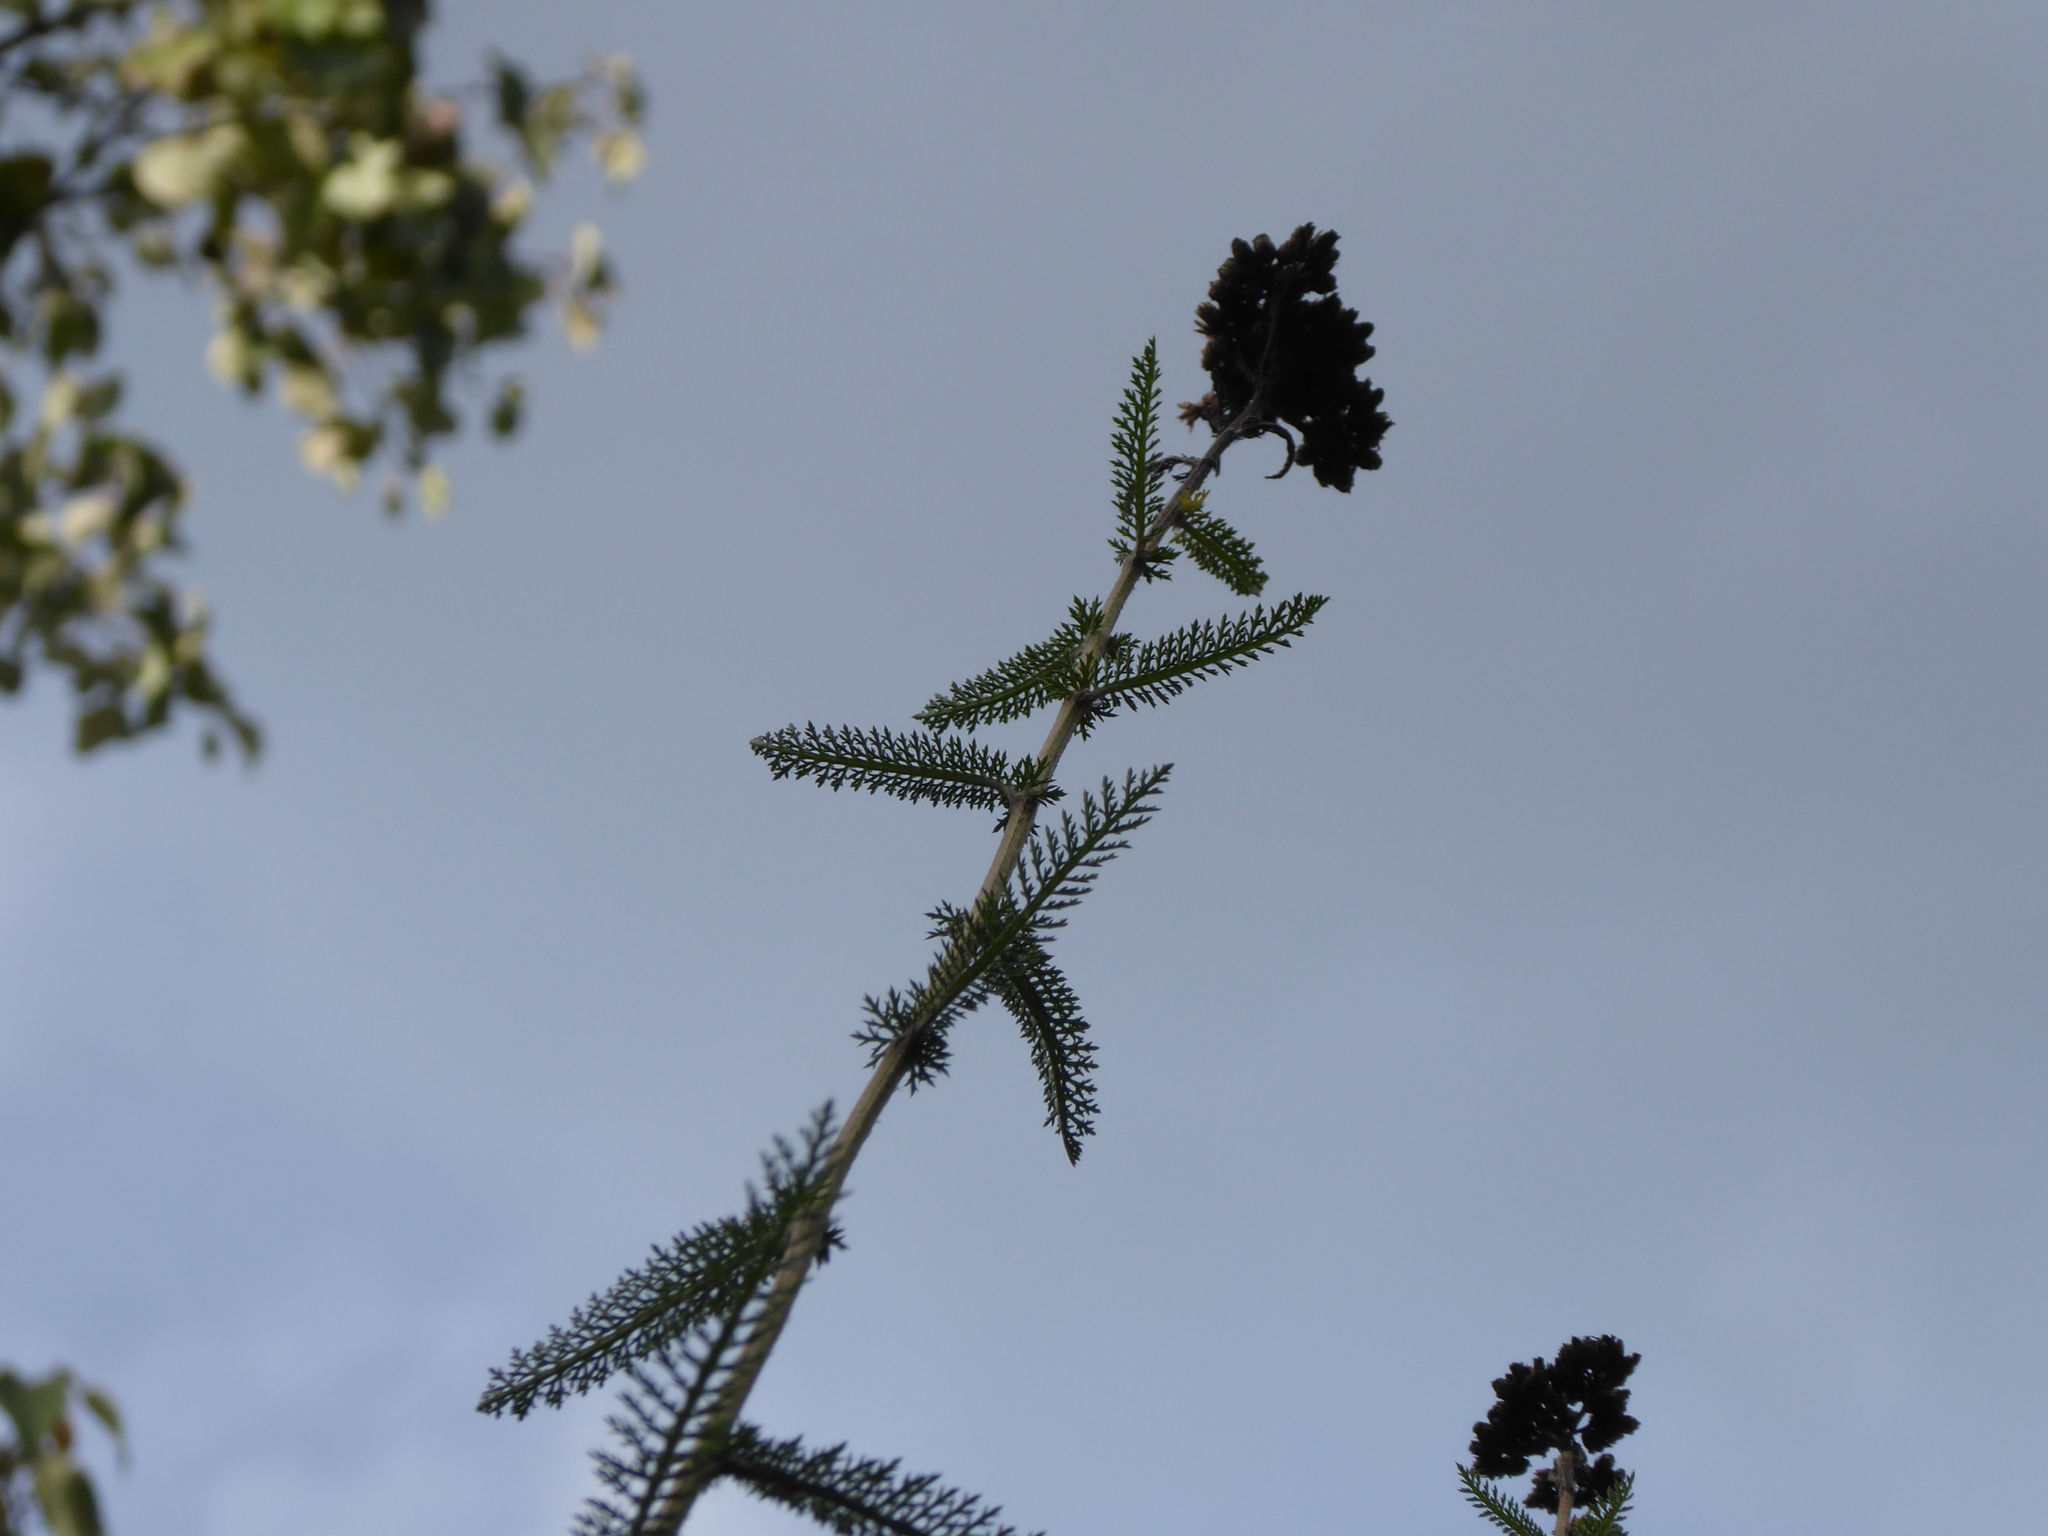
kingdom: Plantae
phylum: Tracheophyta
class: Magnoliopsida
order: Asterales
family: Asteraceae
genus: Achillea
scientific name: Achillea millefolium
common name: Yarrow
